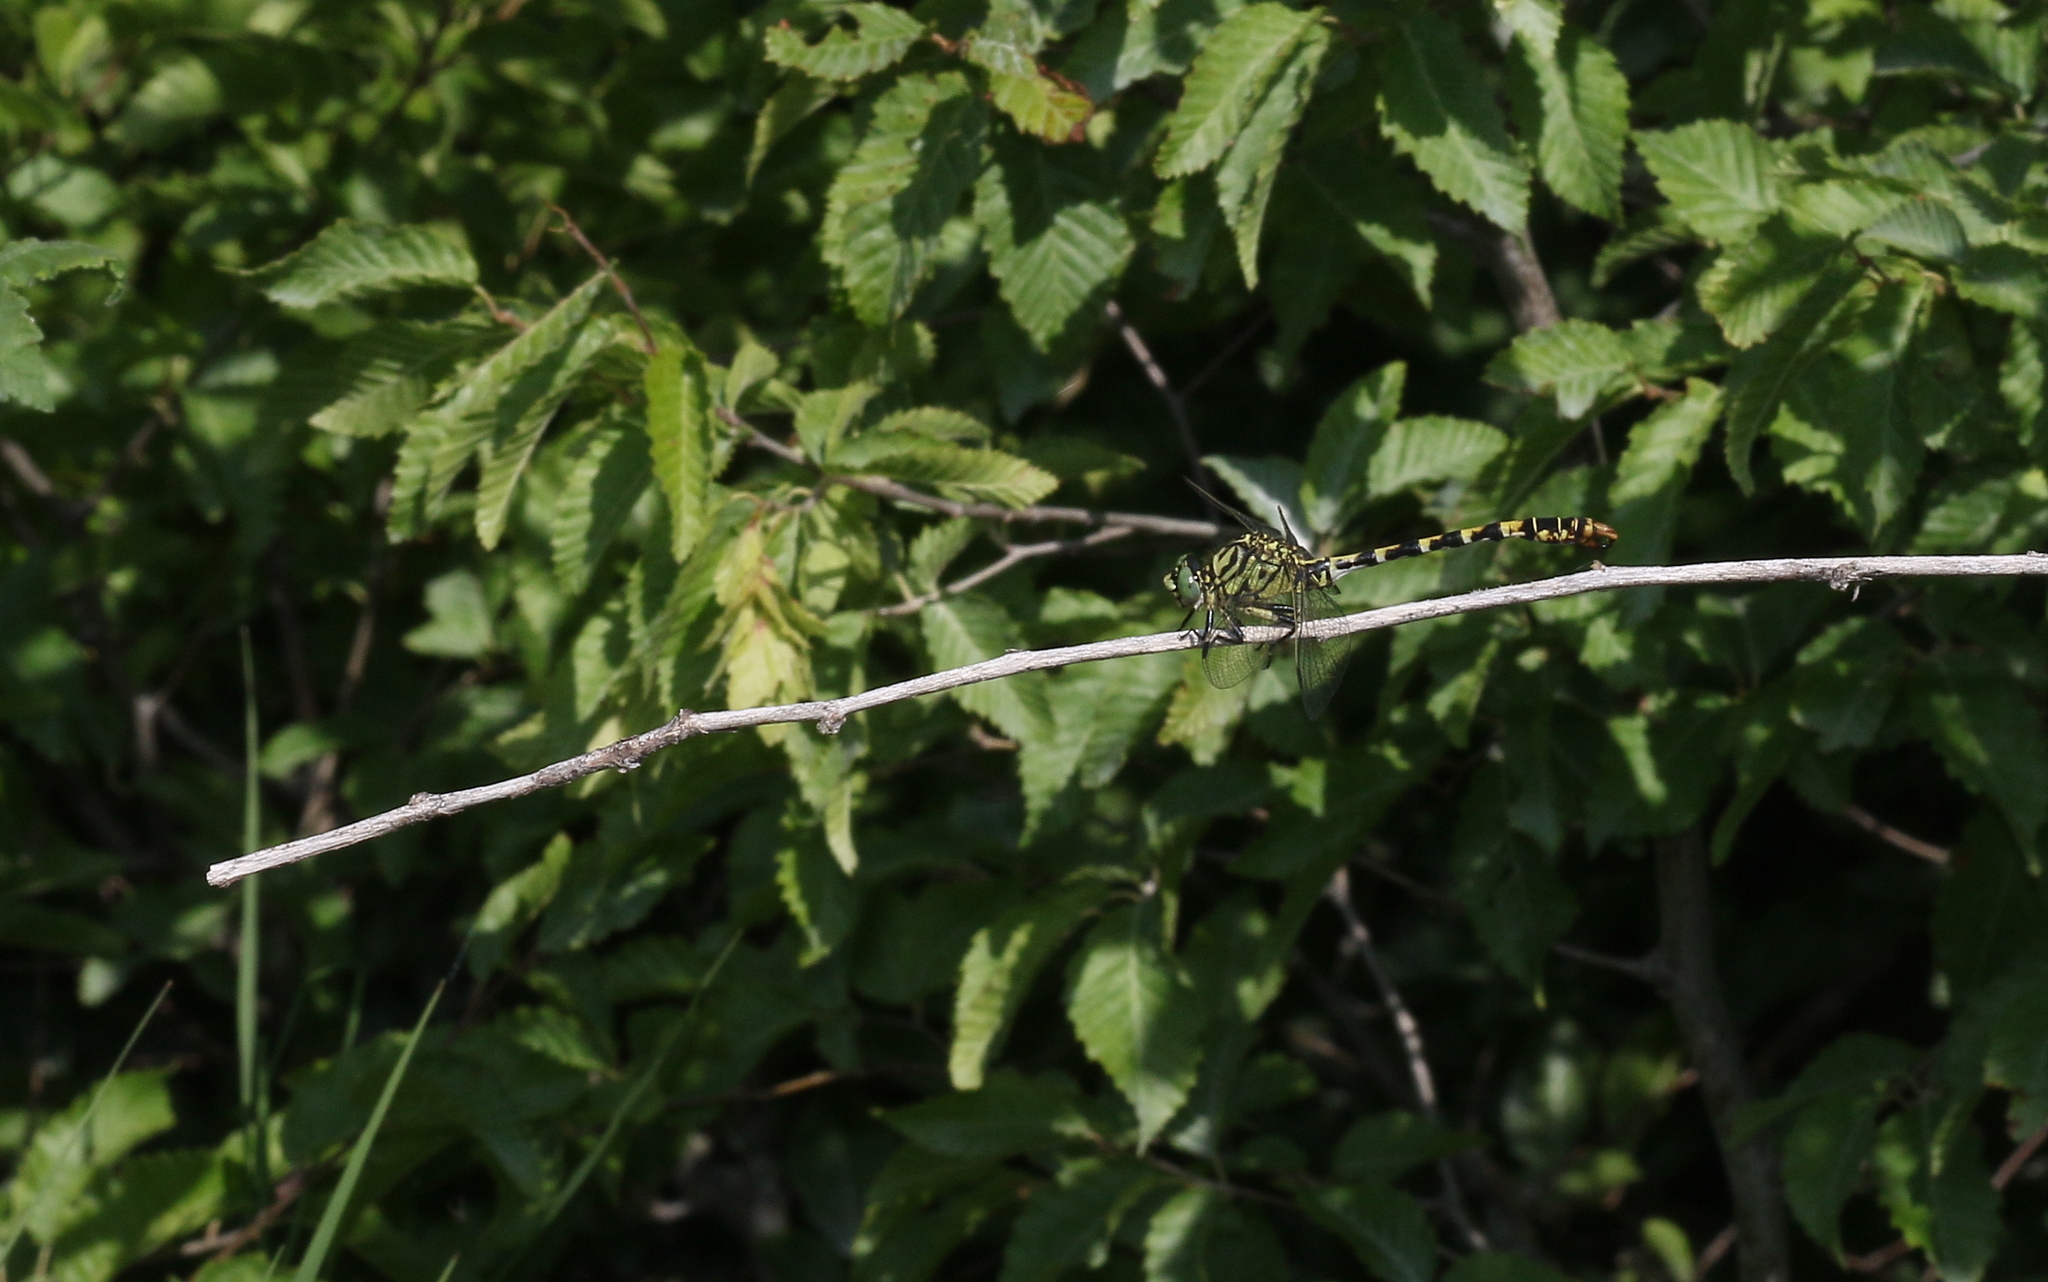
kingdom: Animalia
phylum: Arthropoda
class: Insecta
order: Odonata
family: Gomphidae
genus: Onychogomphus
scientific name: Onychogomphus forcipatus
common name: Small pincertail
